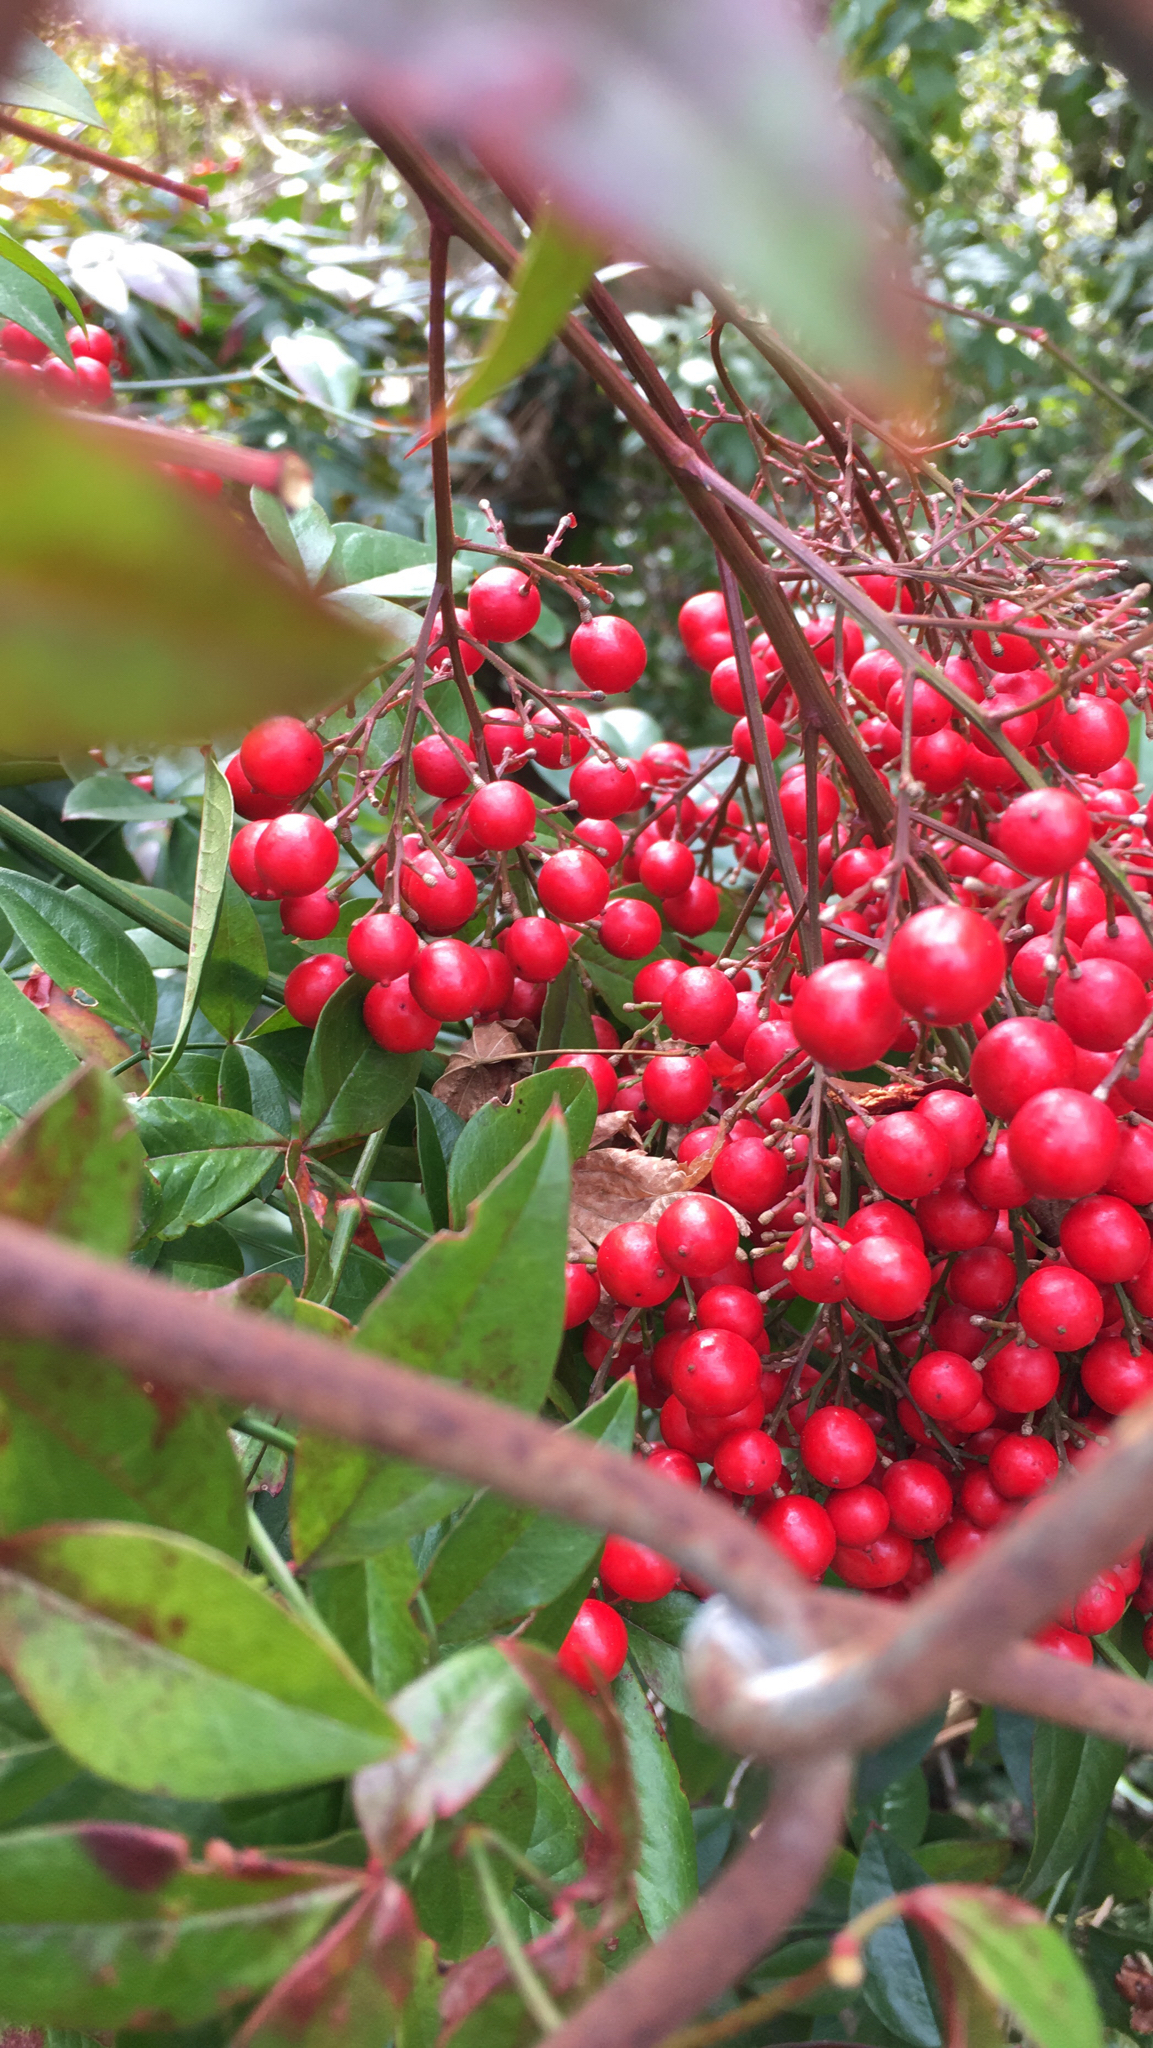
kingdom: Plantae
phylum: Tracheophyta
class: Magnoliopsida
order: Ranunculales
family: Berberidaceae
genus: Nandina
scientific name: Nandina domestica
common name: Sacred bamboo
